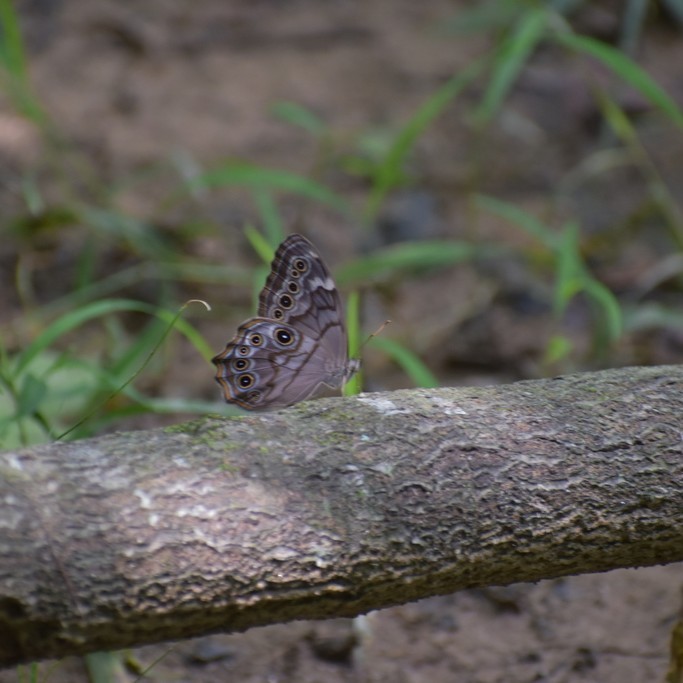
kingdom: Animalia
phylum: Arthropoda
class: Insecta
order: Lepidoptera
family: Nymphalidae
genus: Lethe
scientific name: Lethe creola
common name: Creole pearly-eye
